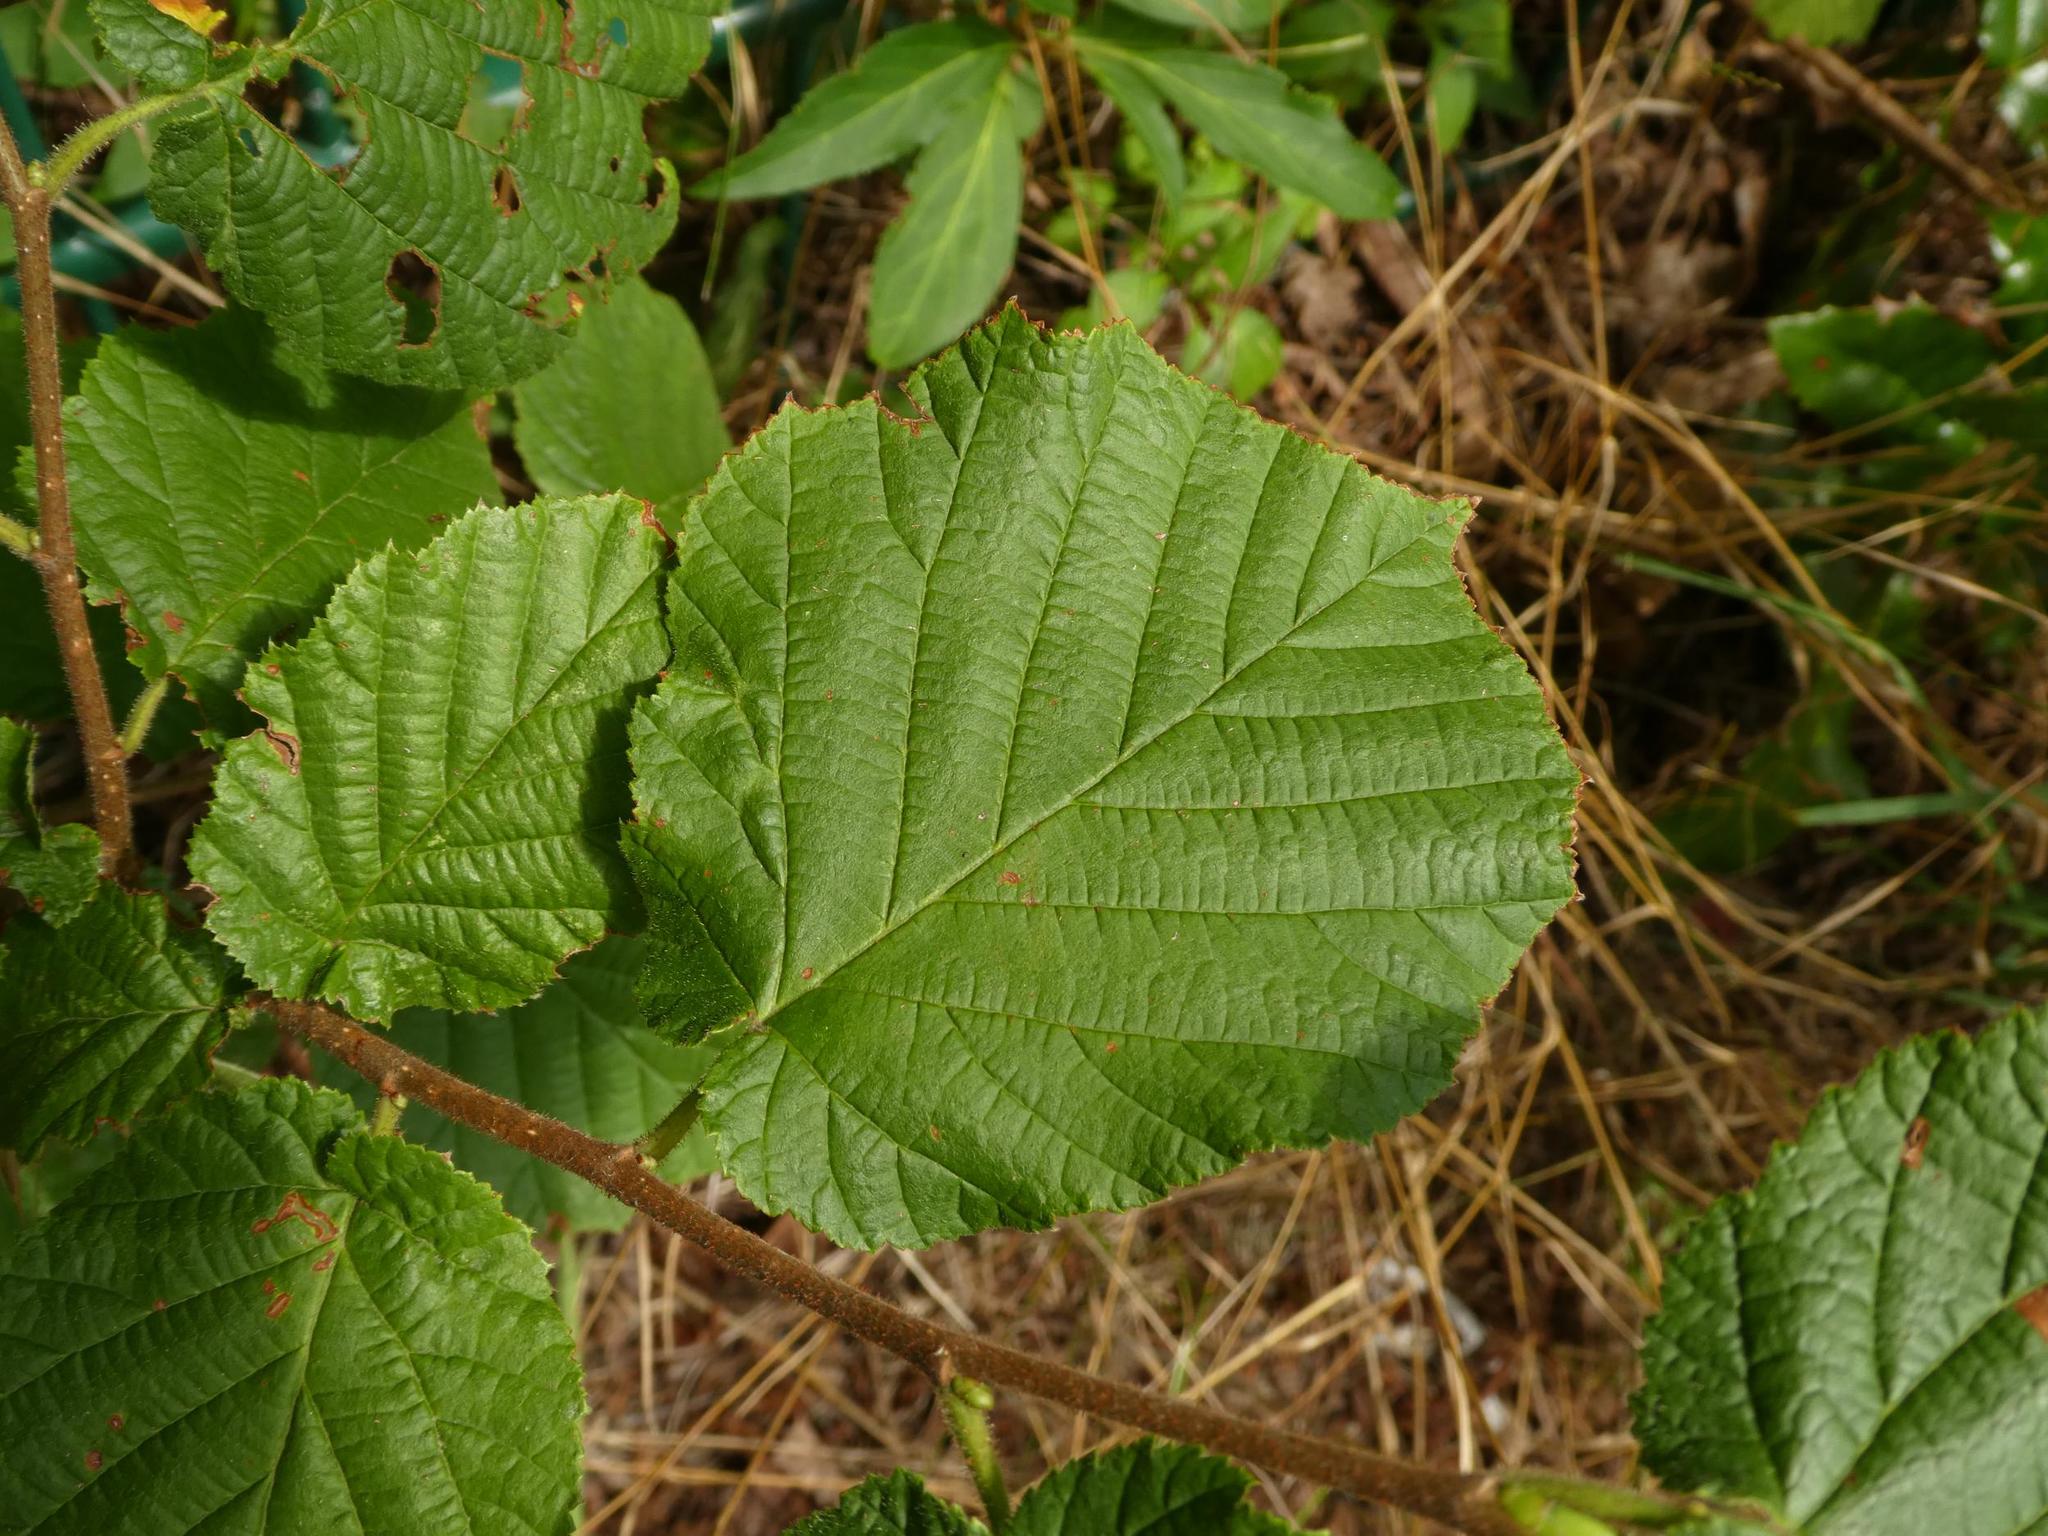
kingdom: Plantae
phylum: Tracheophyta
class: Magnoliopsida
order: Fagales
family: Betulaceae
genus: Corylus
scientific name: Corylus avellana
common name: European hazel
